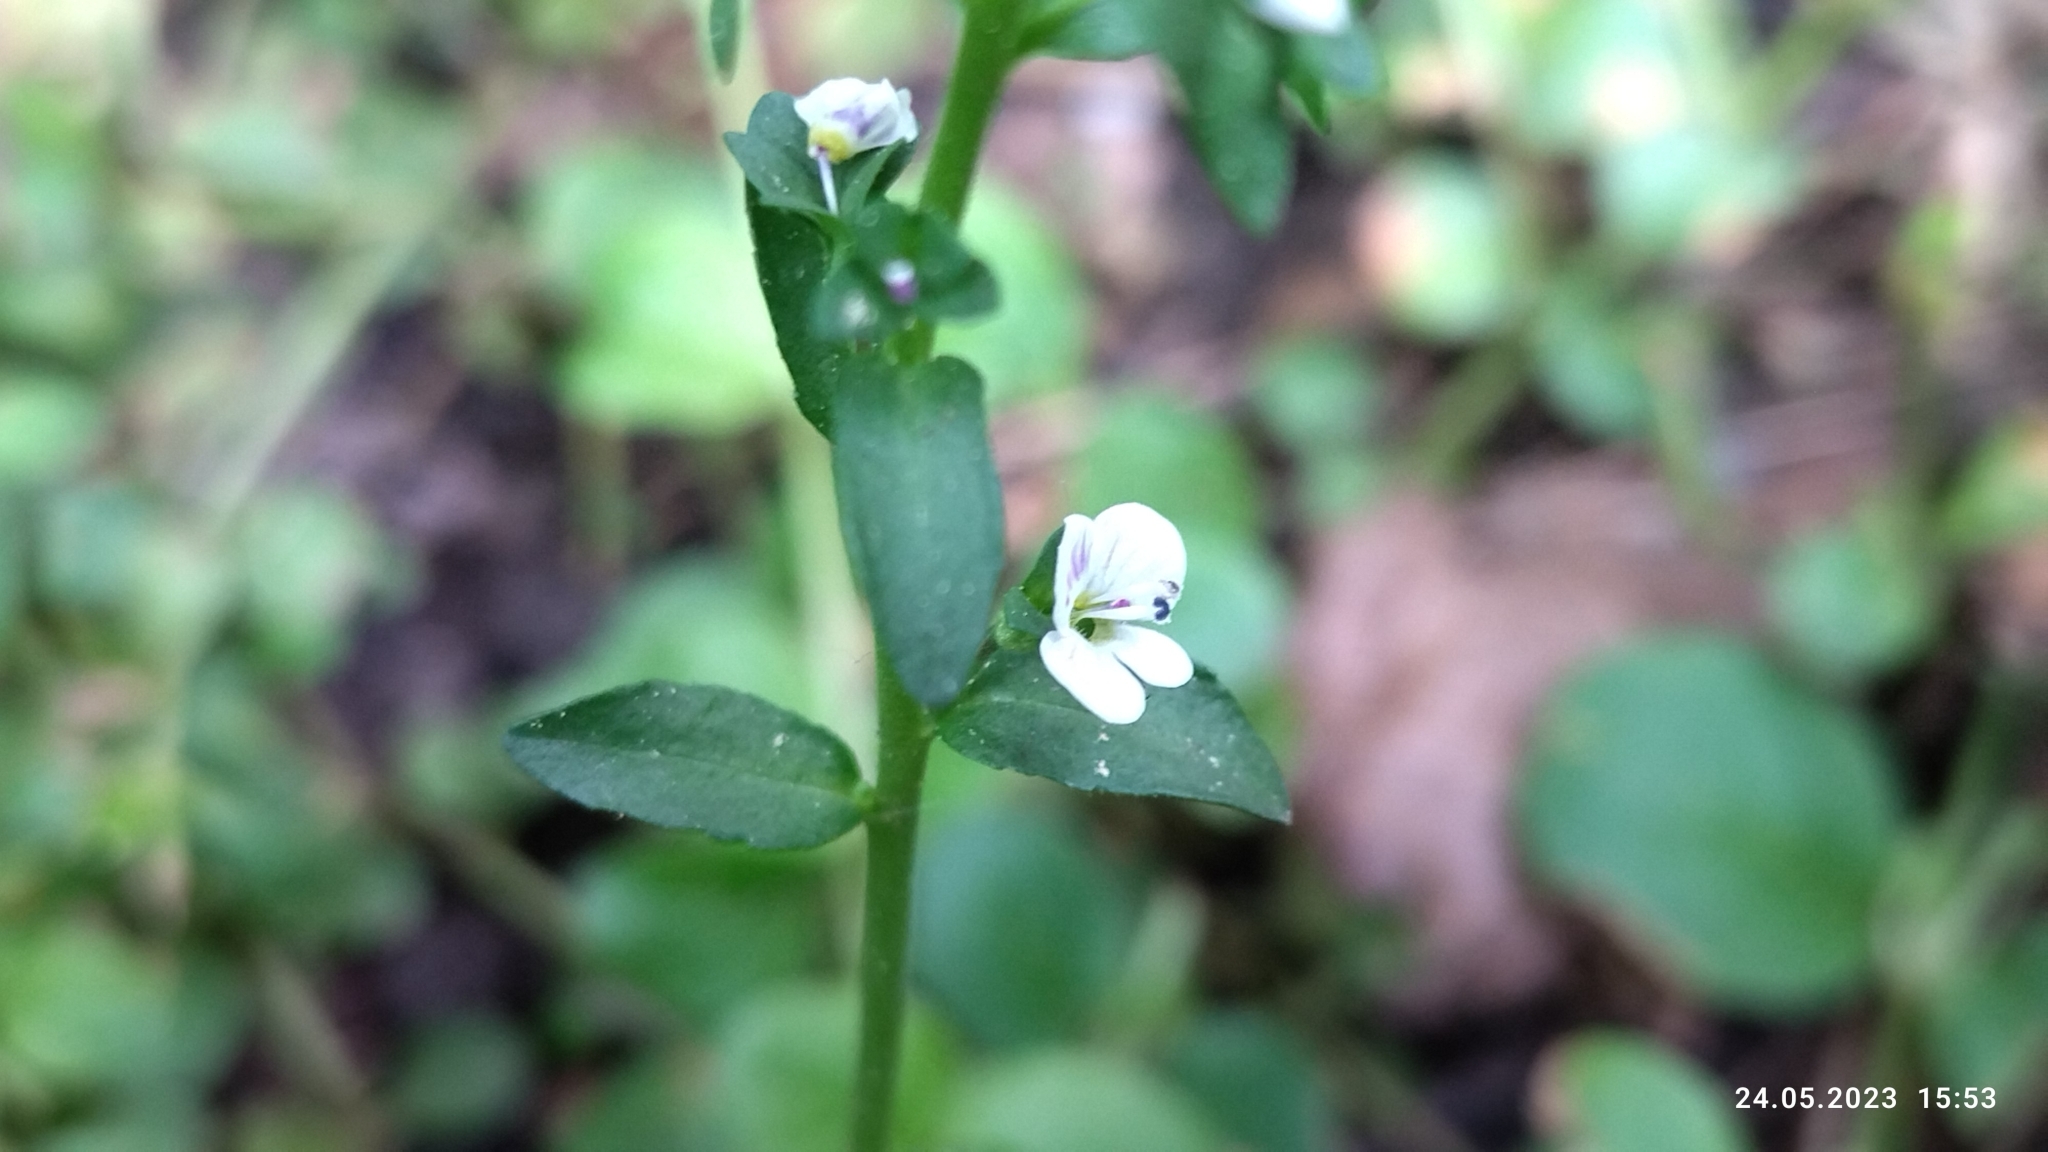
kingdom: Plantae
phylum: Tracheophyta
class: Magnoliopsida
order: Lamiales
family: Plantaginaceae
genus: Veronica
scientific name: Veronica serpyllifolia
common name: Thyme-leaved speedwell
